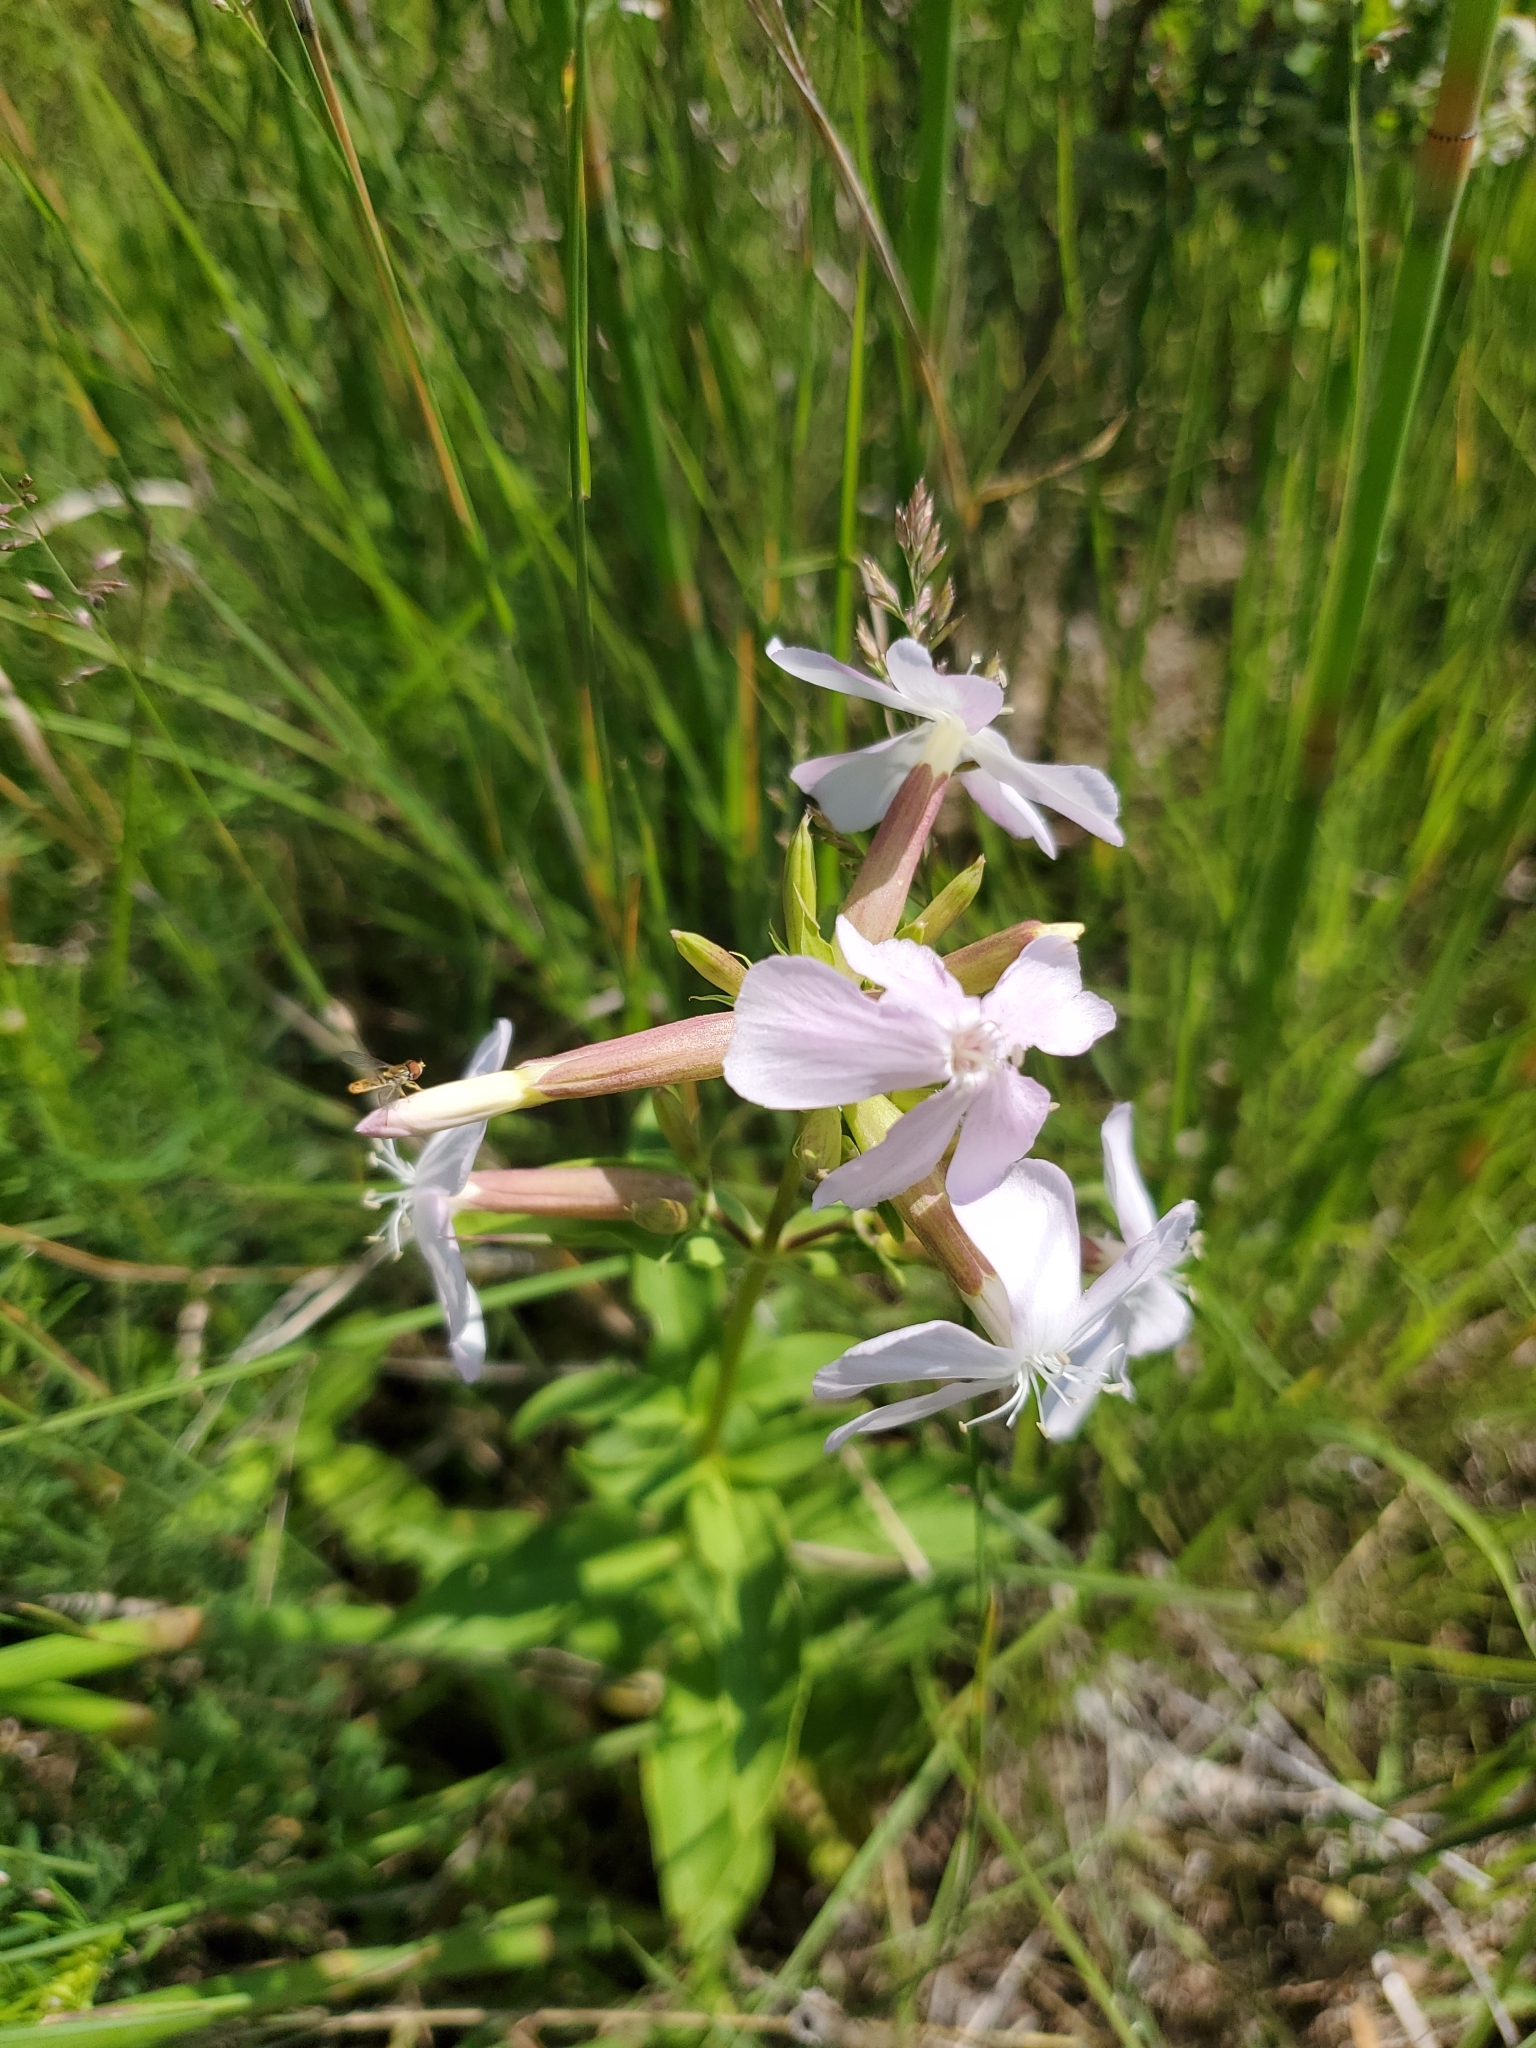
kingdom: Plantae
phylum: Tracheophyta
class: Magnoliopsida
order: Caryophyllales
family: Caryophyllaceae
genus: Saponaria
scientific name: Saponaria officinalis
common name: Soapwort
